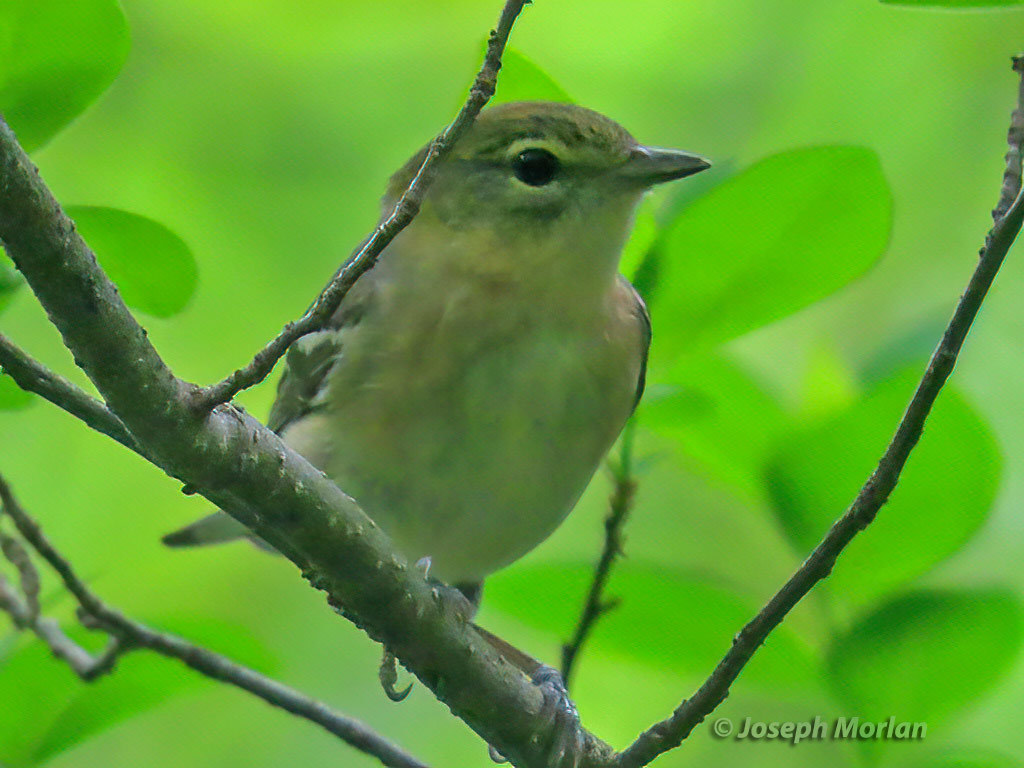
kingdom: Animalia
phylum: Chordata
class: Aves
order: Passeriformes
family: Parulidae
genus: Setophaga
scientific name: Setophaga castanea
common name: Bay-breasted warbler
